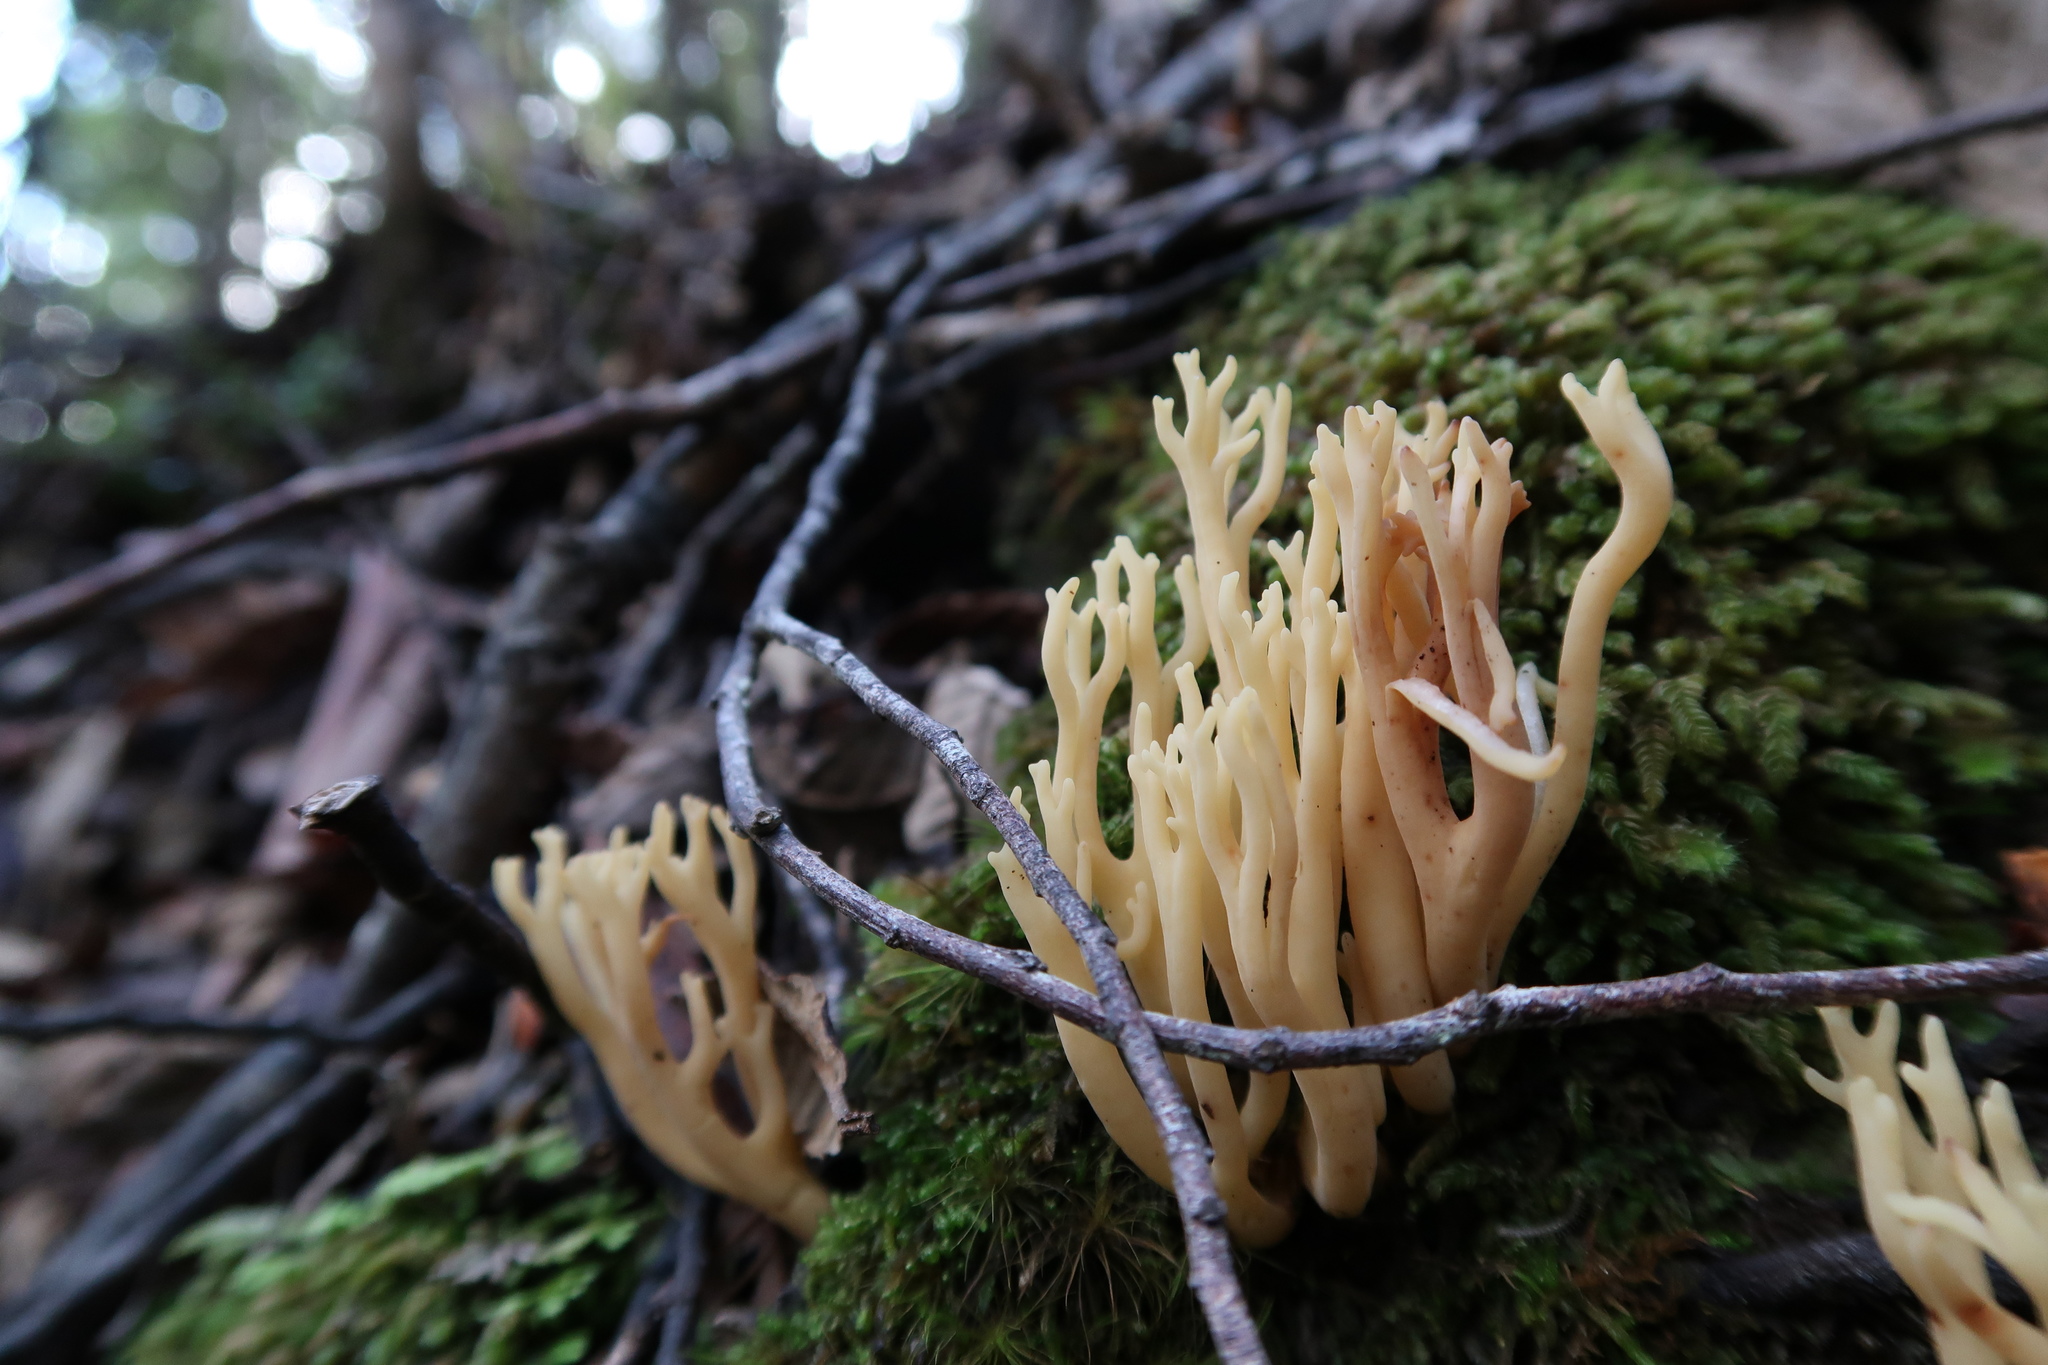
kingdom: Fungi
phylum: Basidiomycota
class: Agaricomycetes
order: Gomphales
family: Gomphaceae
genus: Ramaria
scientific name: Ramaria lorithamnus
